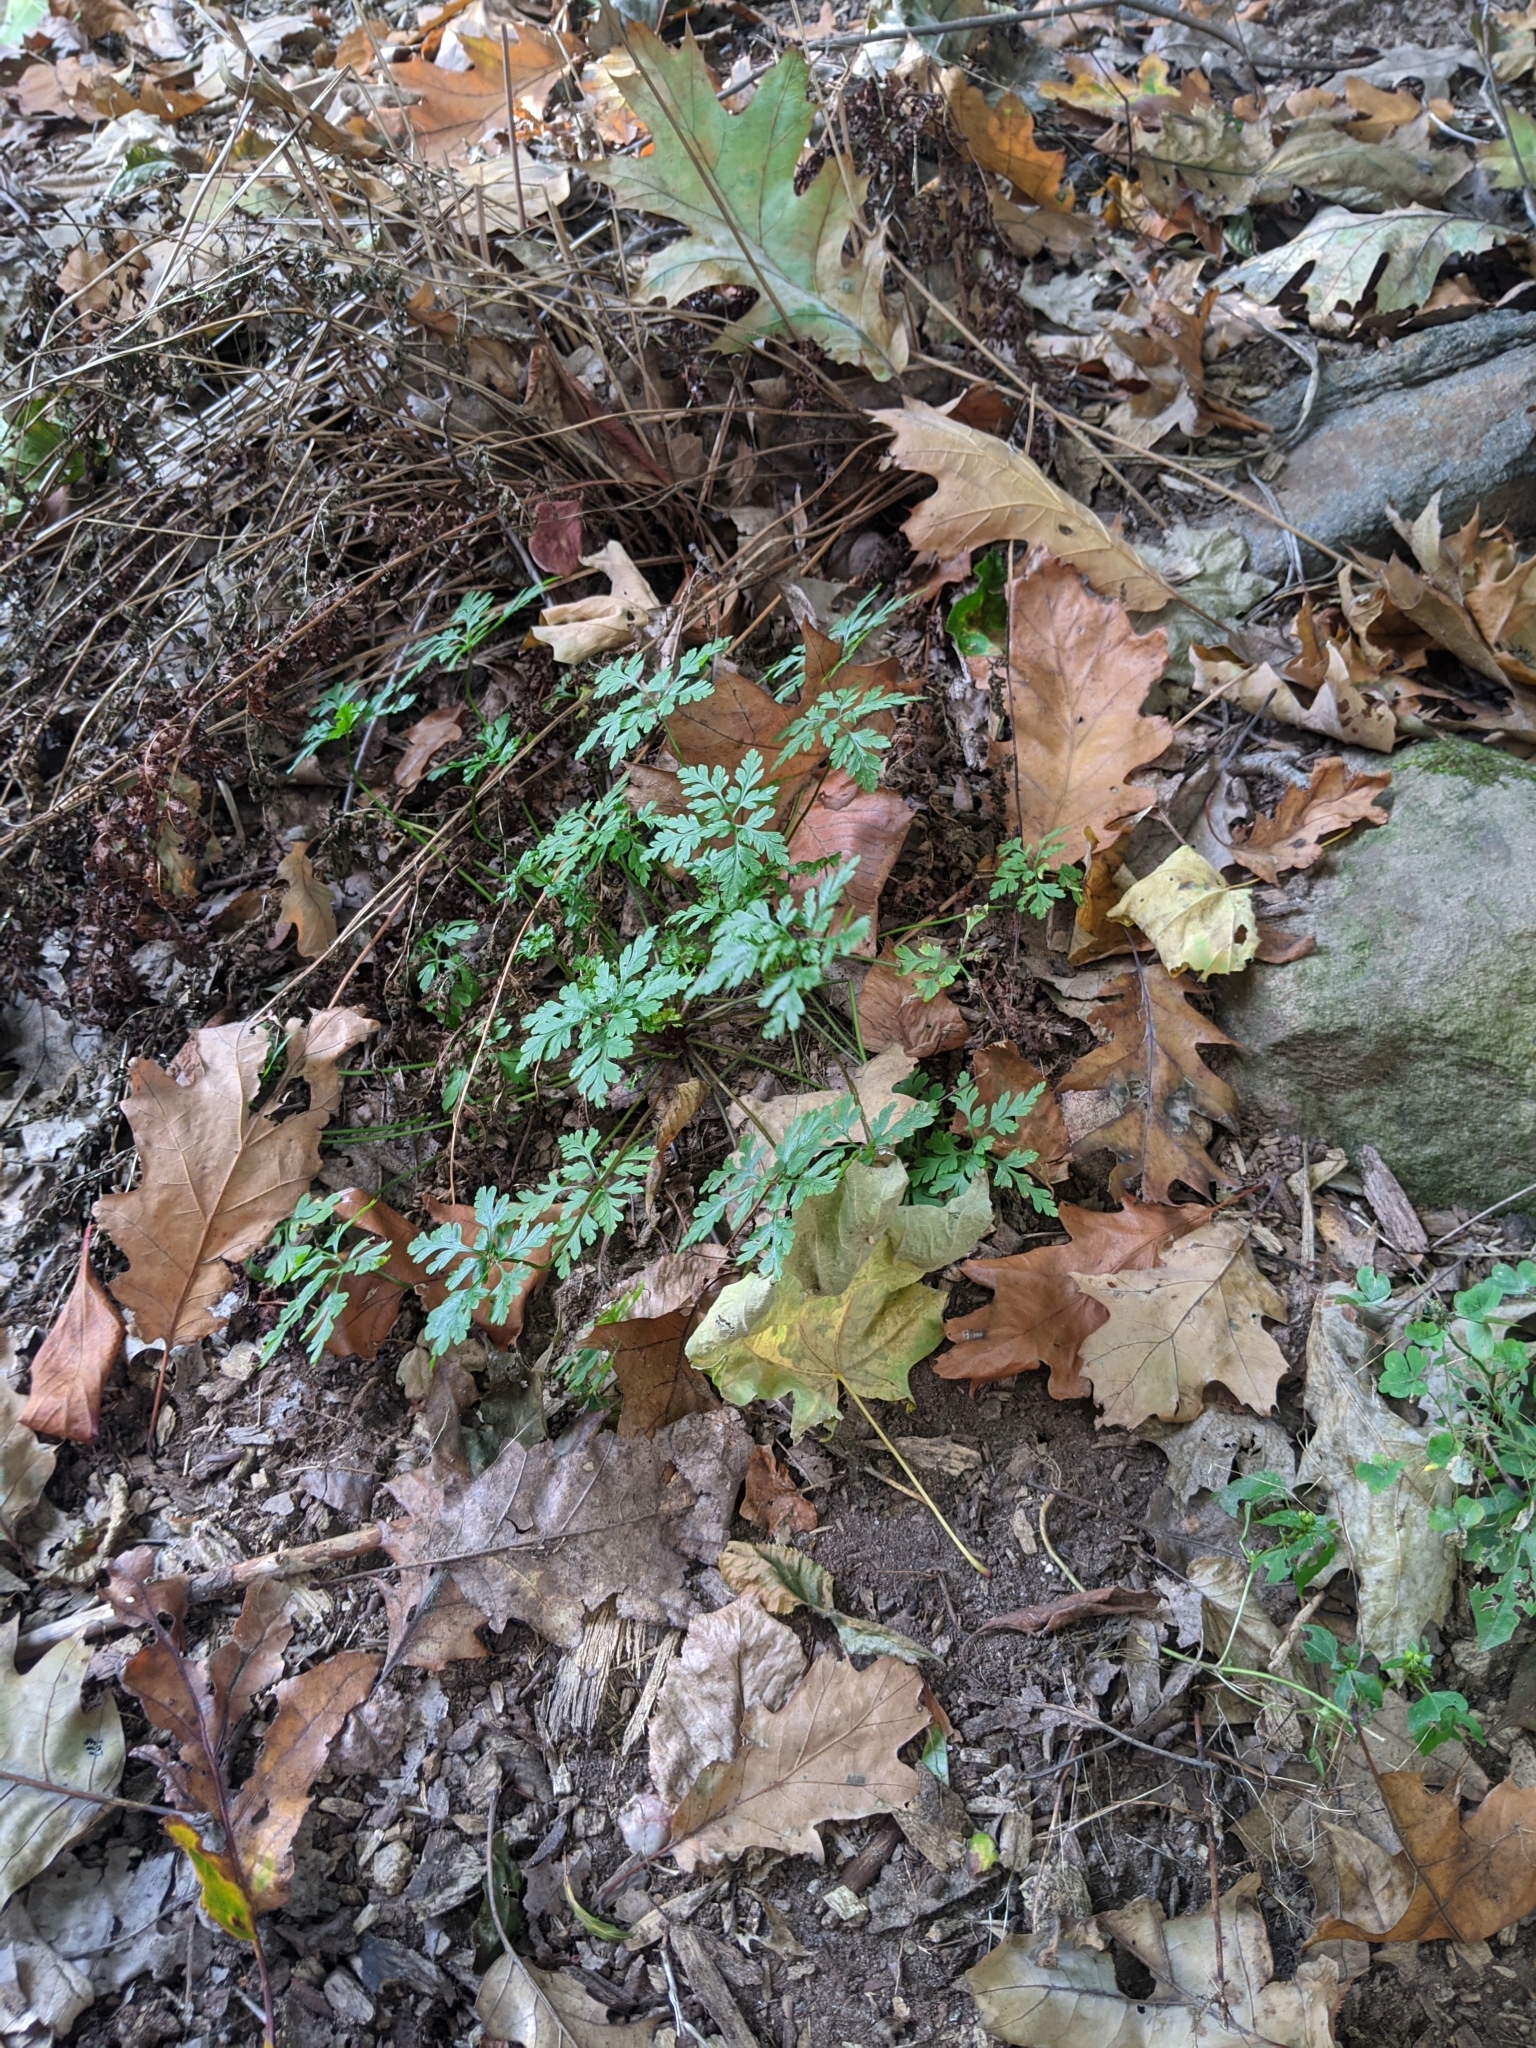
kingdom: Plantae
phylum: Tracheophyta
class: Magnoliopsida
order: Geraniales
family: Geraniaceae
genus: Geranium
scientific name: Geranium robertianum
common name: Herb-robert
